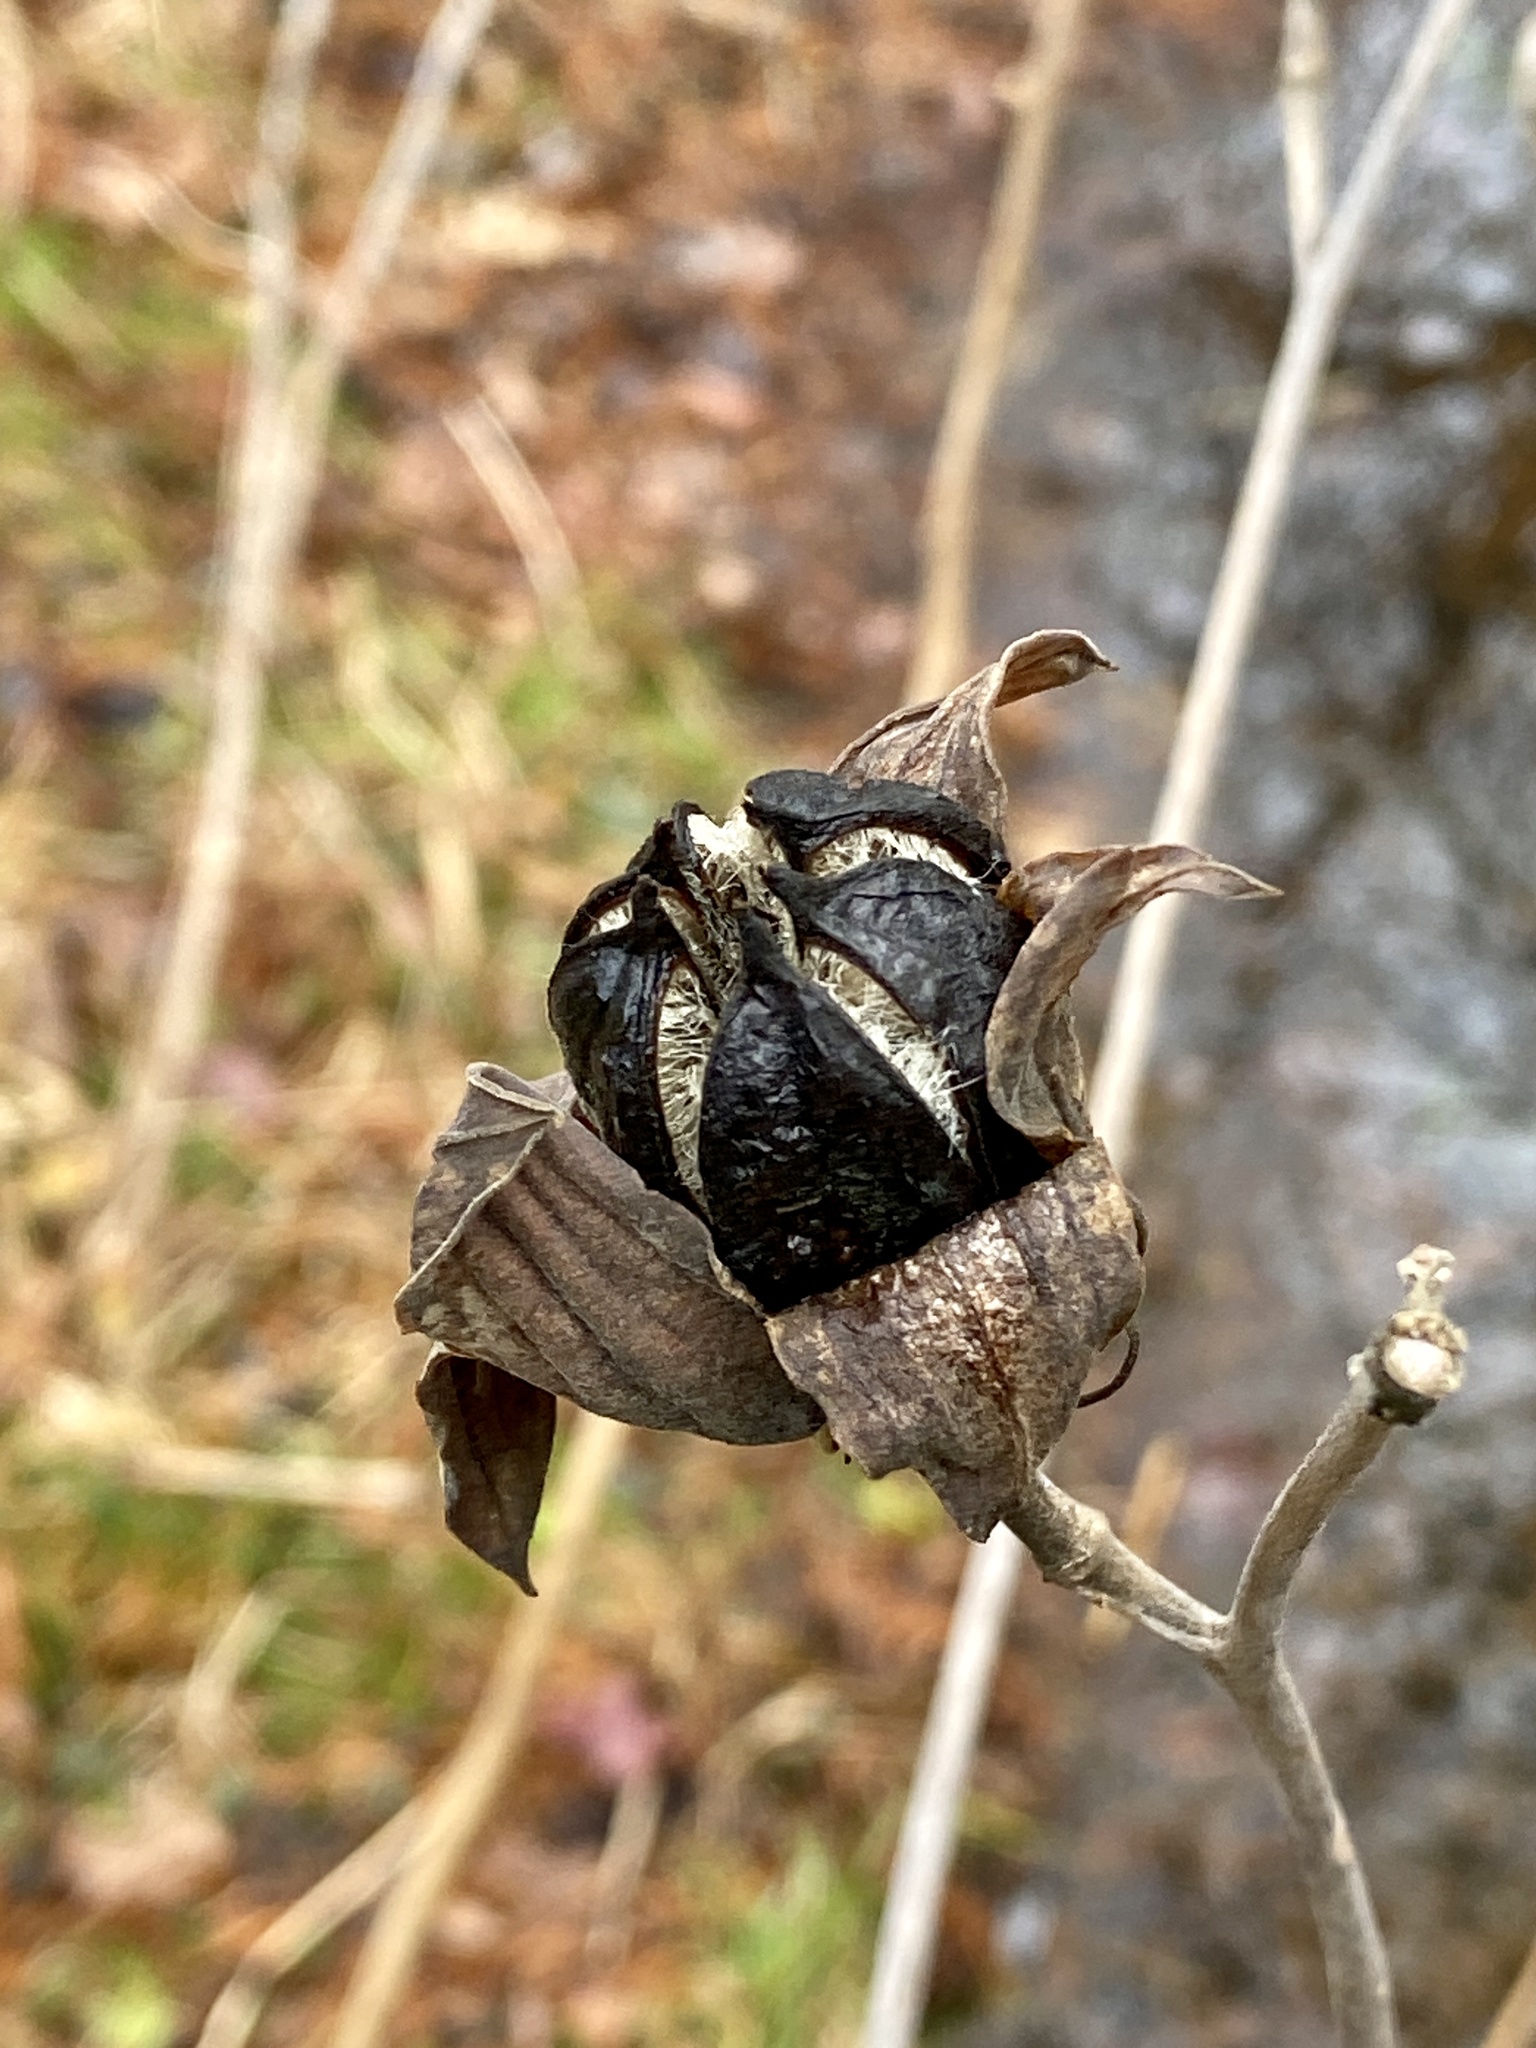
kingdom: Plantae
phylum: Tracheophyta
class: Magnoliopsida
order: Malvales
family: Malvaceae
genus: Hibiscus
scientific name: Hibiscus moscheutos
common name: Common rose-mallow
